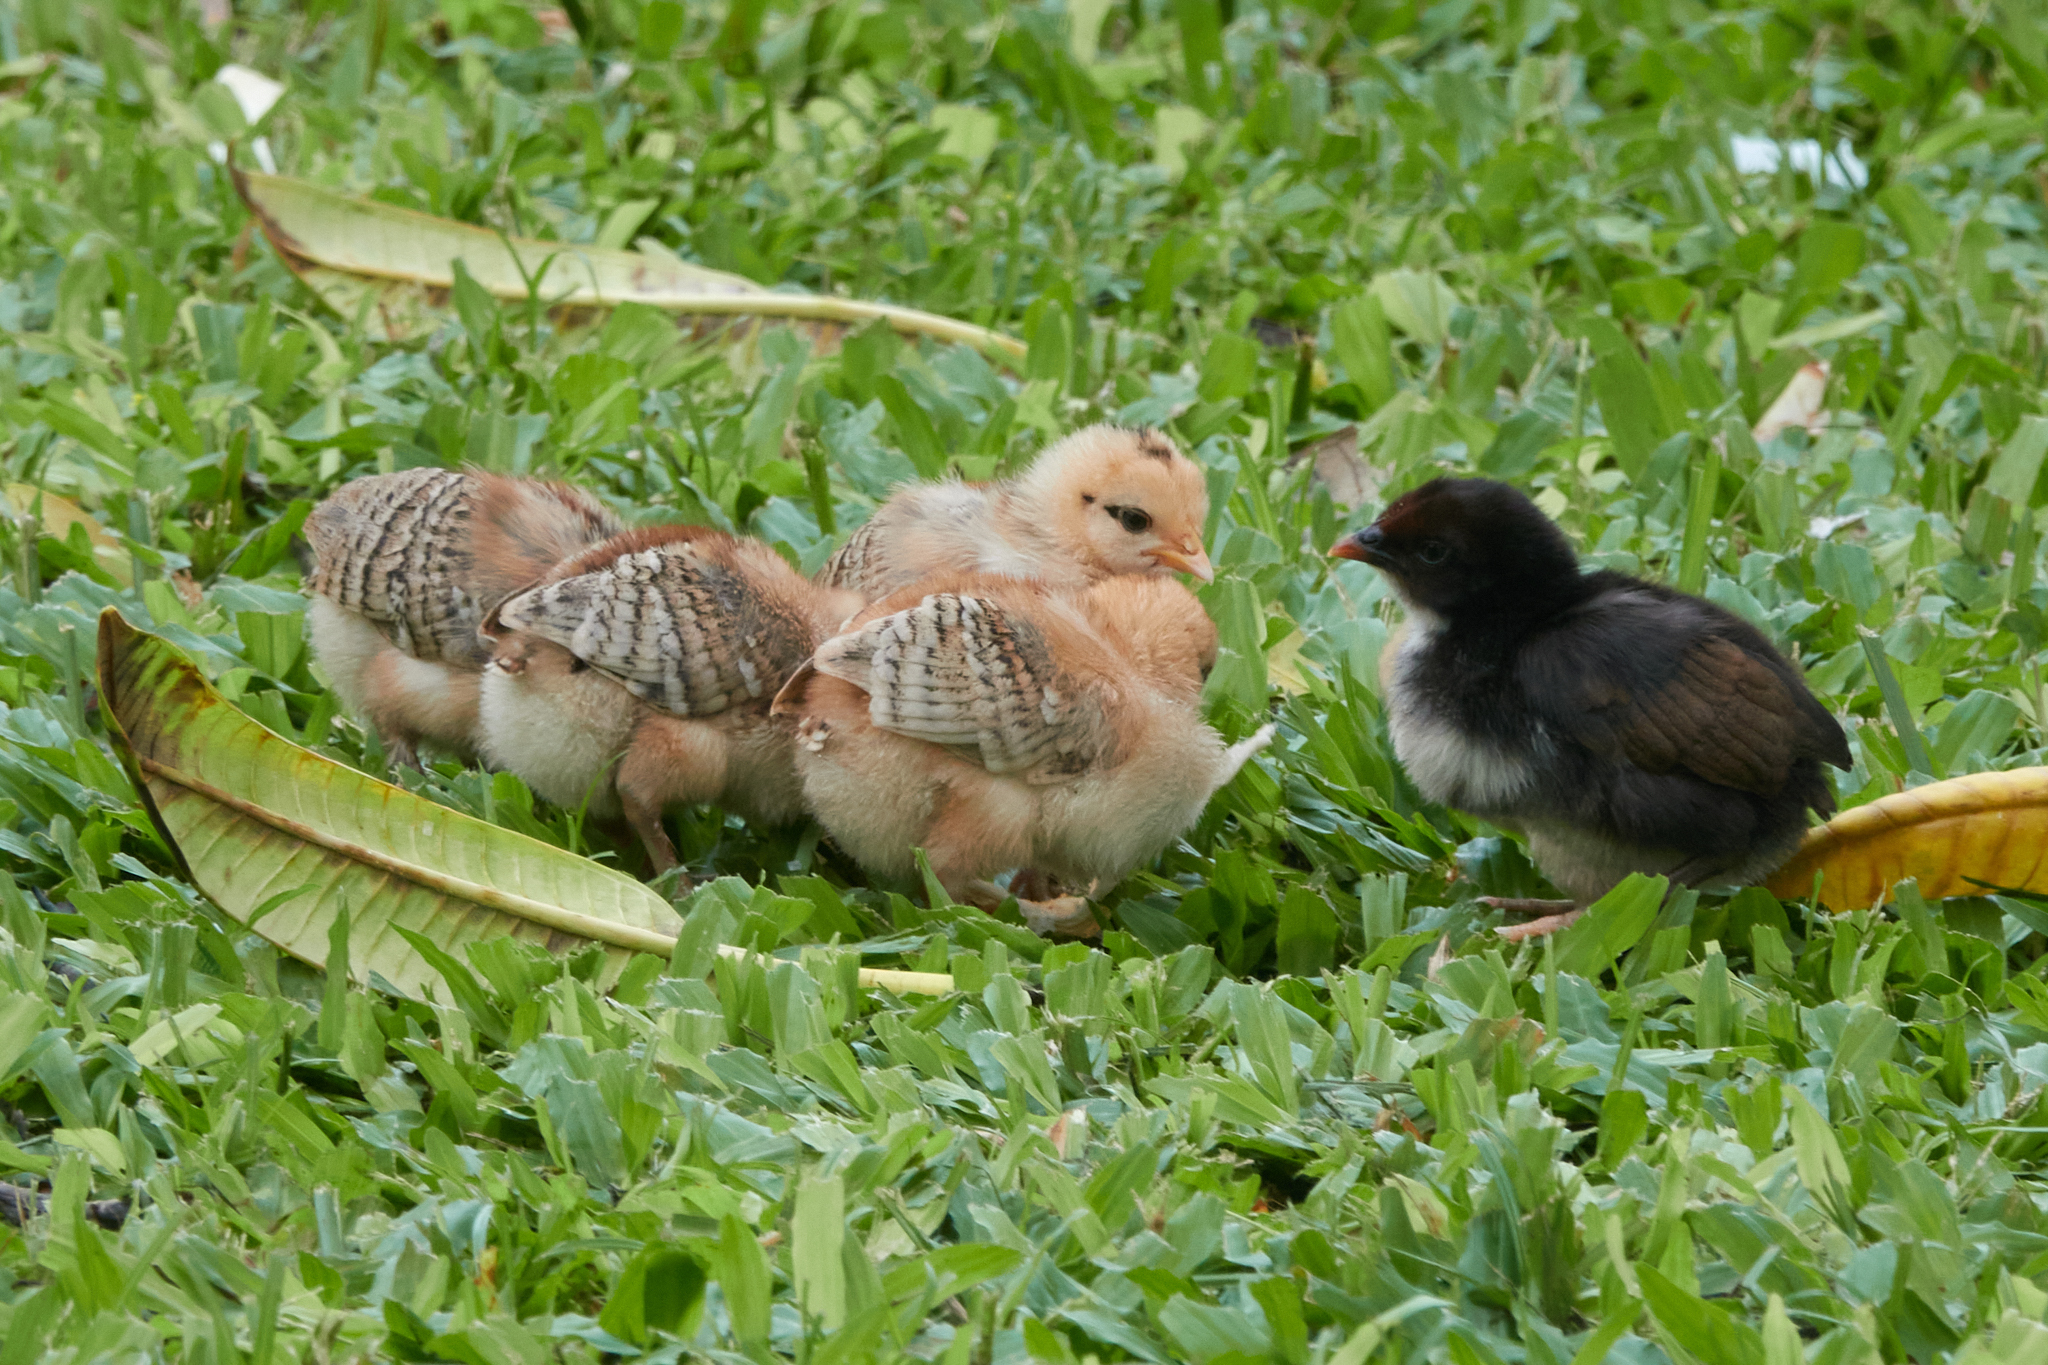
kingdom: Animalia
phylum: Chordata
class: Aves
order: Galliformes
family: Phasianidae
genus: Gallus
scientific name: Gallus gallus
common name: Red junglefowl
